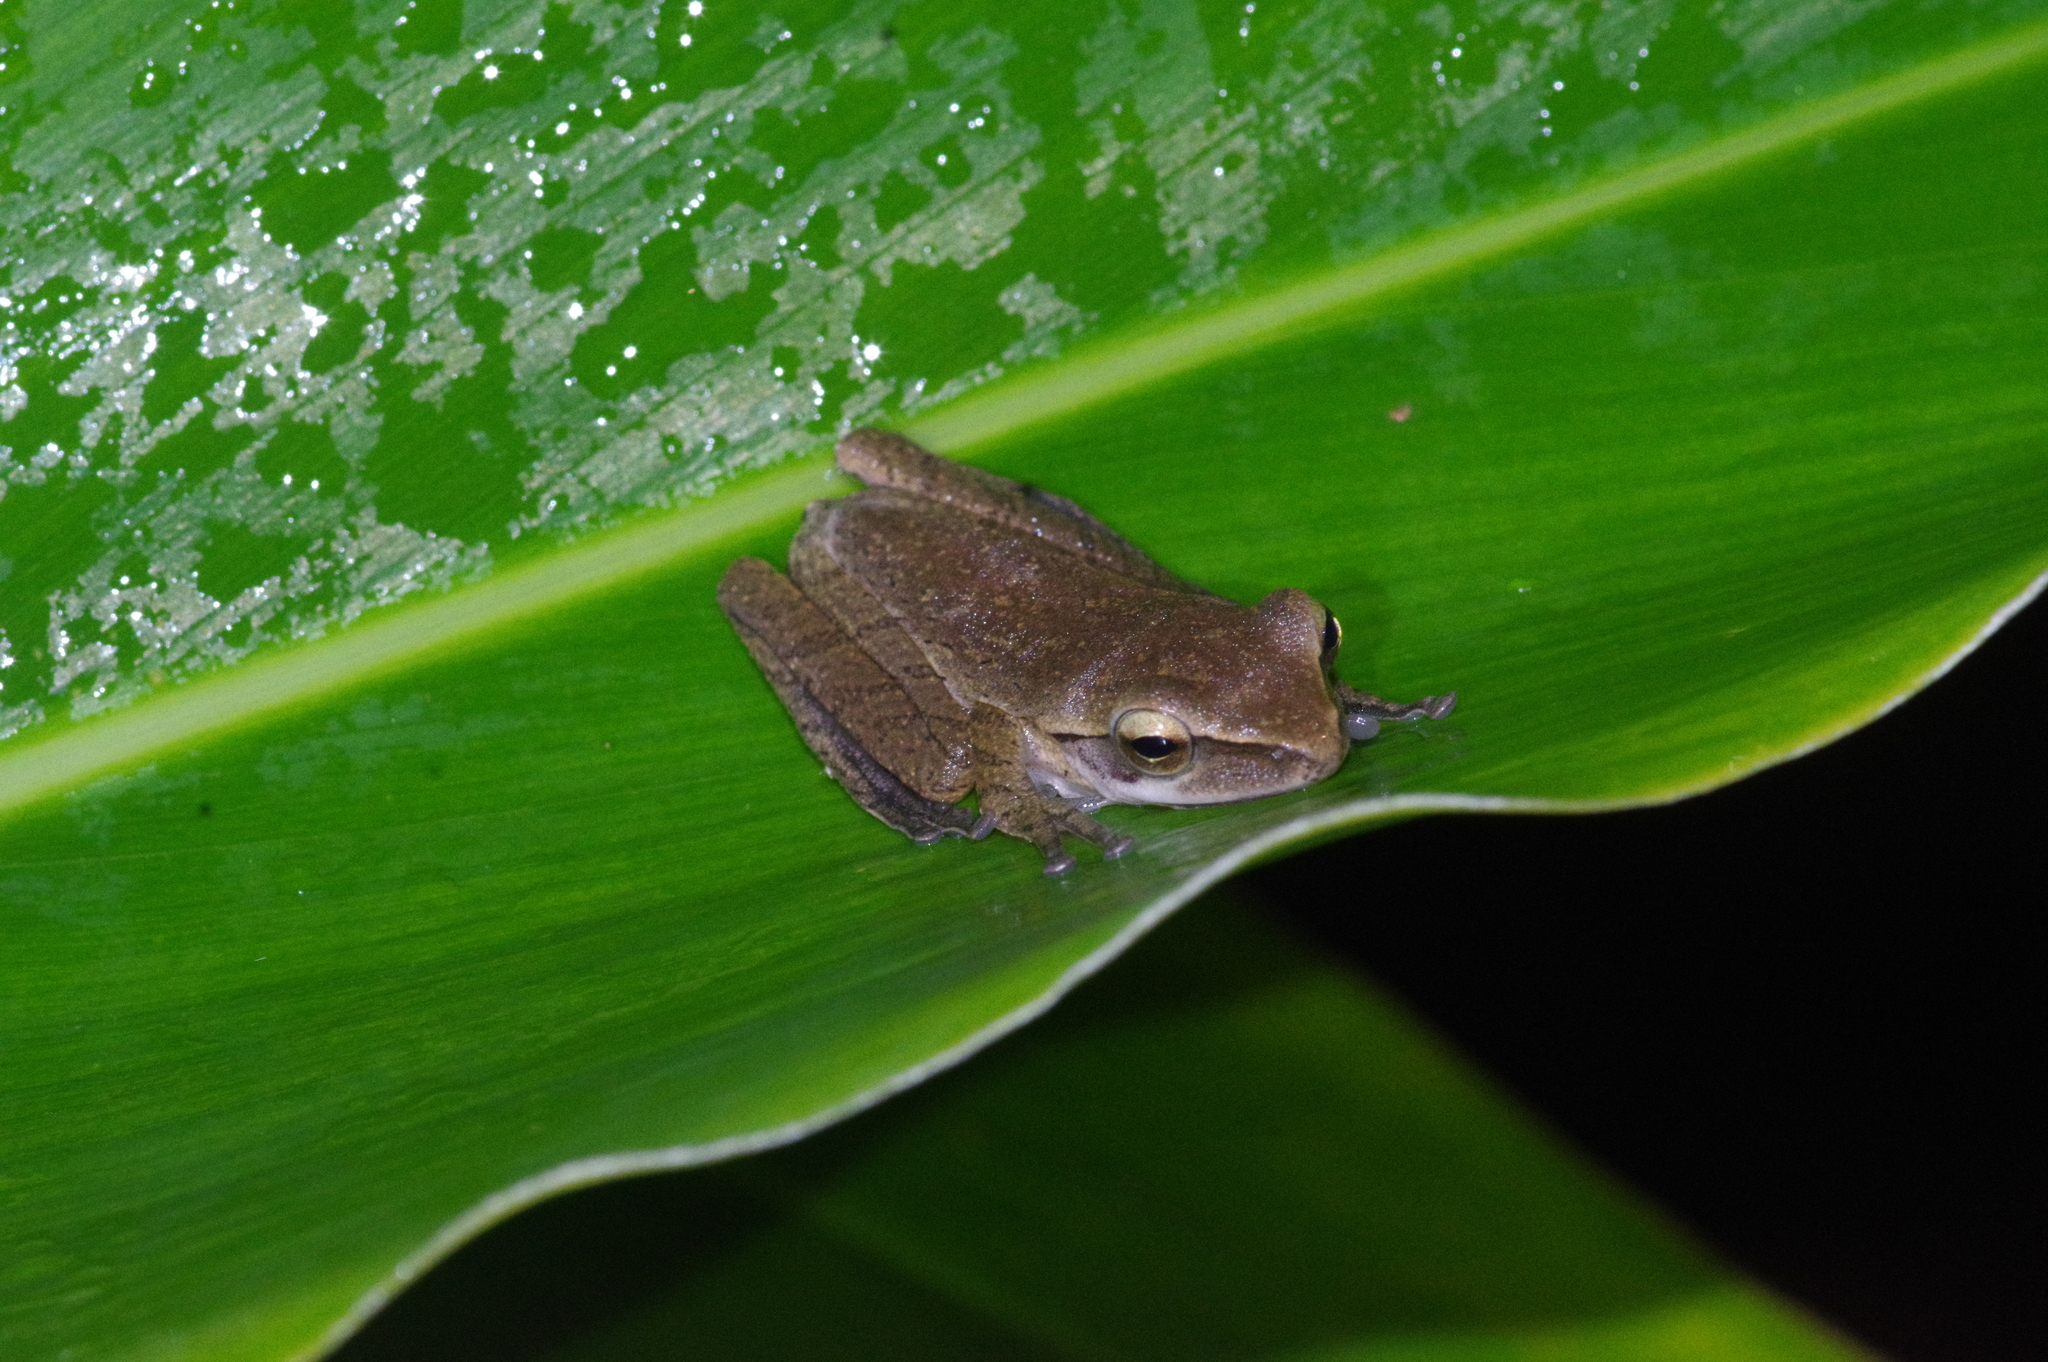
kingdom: Animalia
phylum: Chordata
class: Amphibia
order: Anura
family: Rhacophoridae
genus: Polypedates
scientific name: Polypedates leucomystax
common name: Common tree frog/four-lined tree frog
